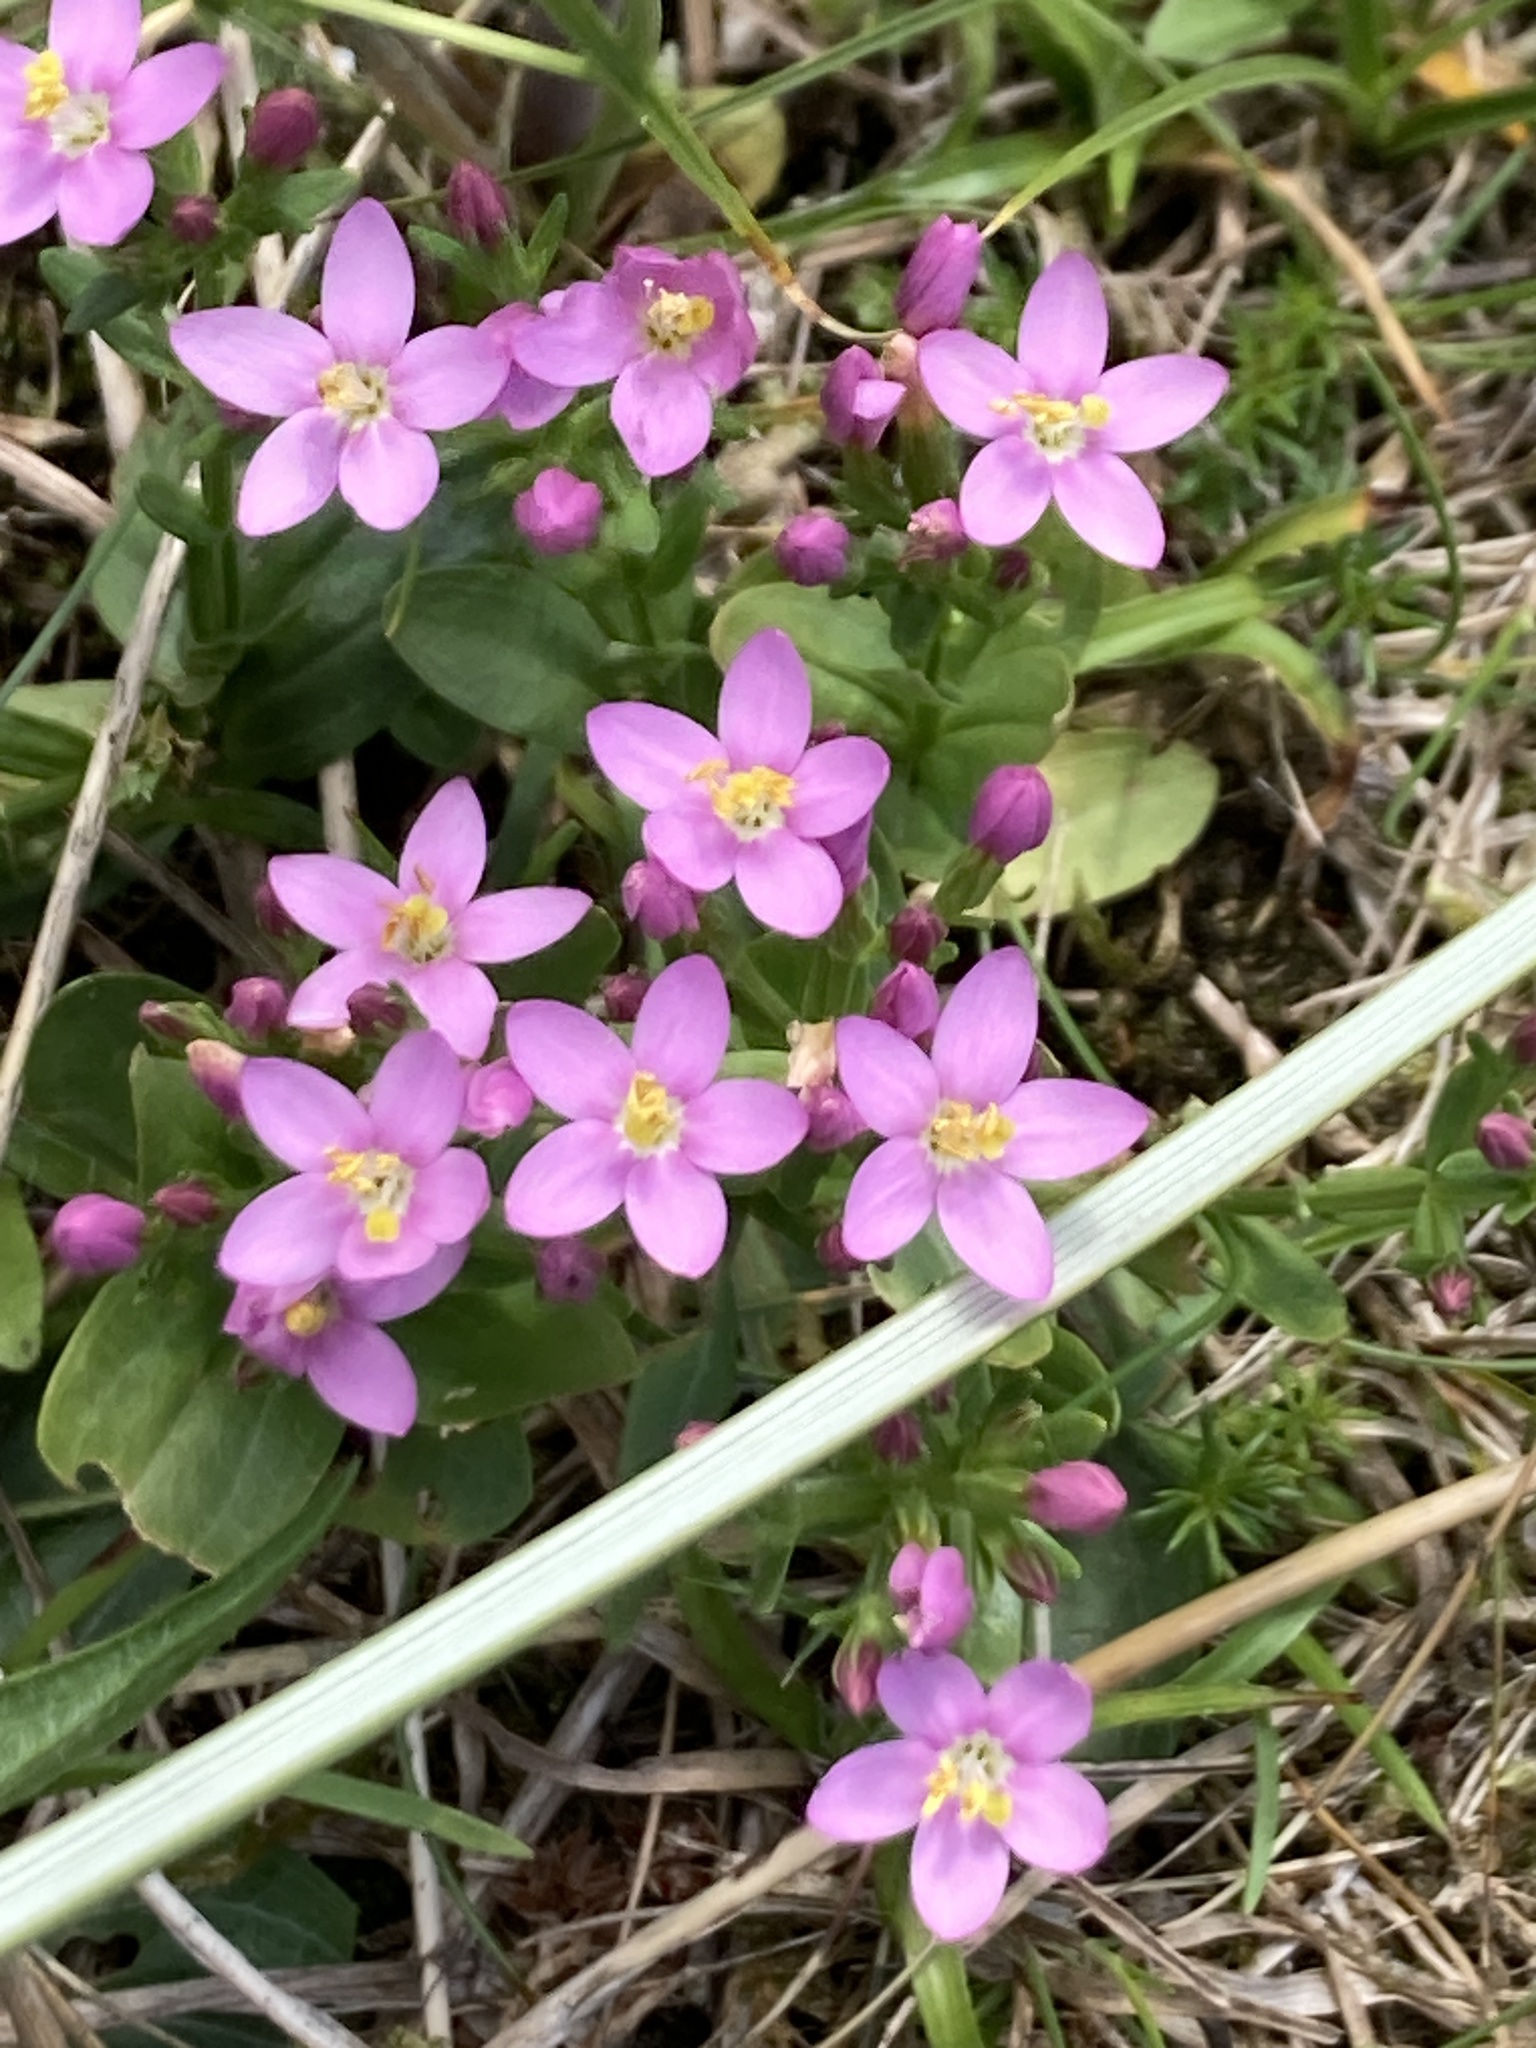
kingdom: Plantae
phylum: Tracheophyta
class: Magnoliopsida
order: Gentianales
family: Gentianaceae
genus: Centaurium
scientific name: Centaurium erythraea
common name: Common centaury
